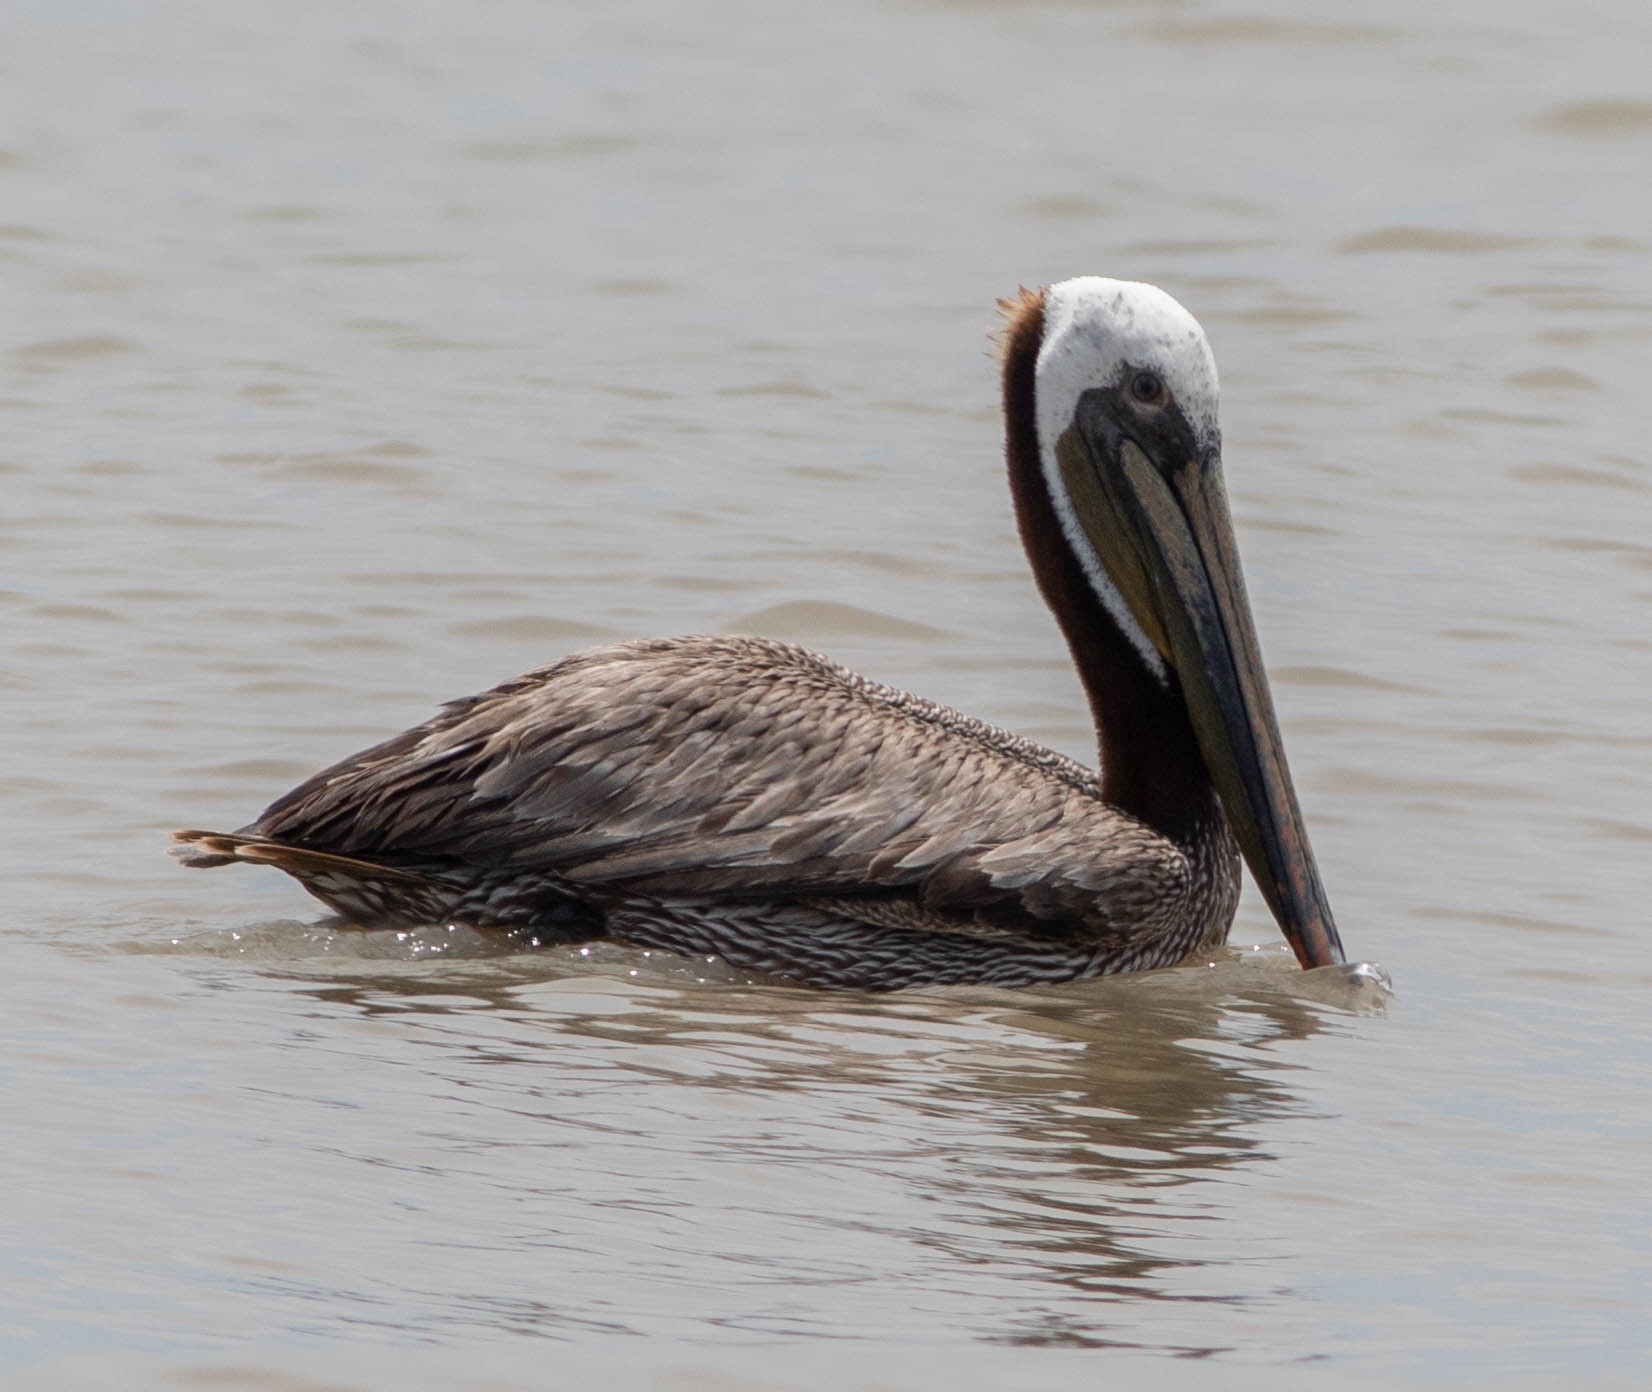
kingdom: Animalia
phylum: Chordata
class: Aves
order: Pelecaniformes
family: Pelecanidae
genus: Pelecanus
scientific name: Pelecanus occidentalis
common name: Brown pelican
